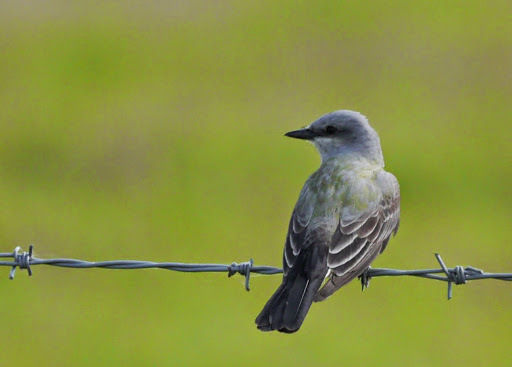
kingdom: Animalia
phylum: Chordata
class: Aves
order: Passeriformes
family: Tyrannidae
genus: Tyrannus
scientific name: Tyrannus verticalis
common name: Western kingbird
